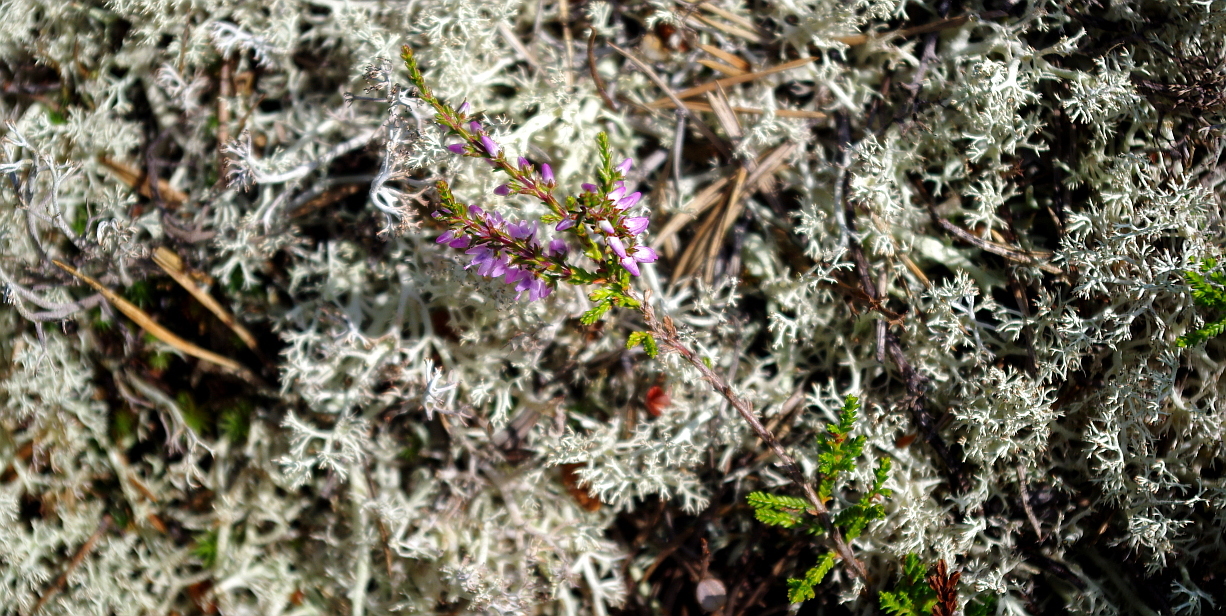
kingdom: Plantae
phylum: Tracheophyta
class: Magnoliopsida
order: Ericales
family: Ericaceae
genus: Calluna
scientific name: Calluna vulgaris
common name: Heather
